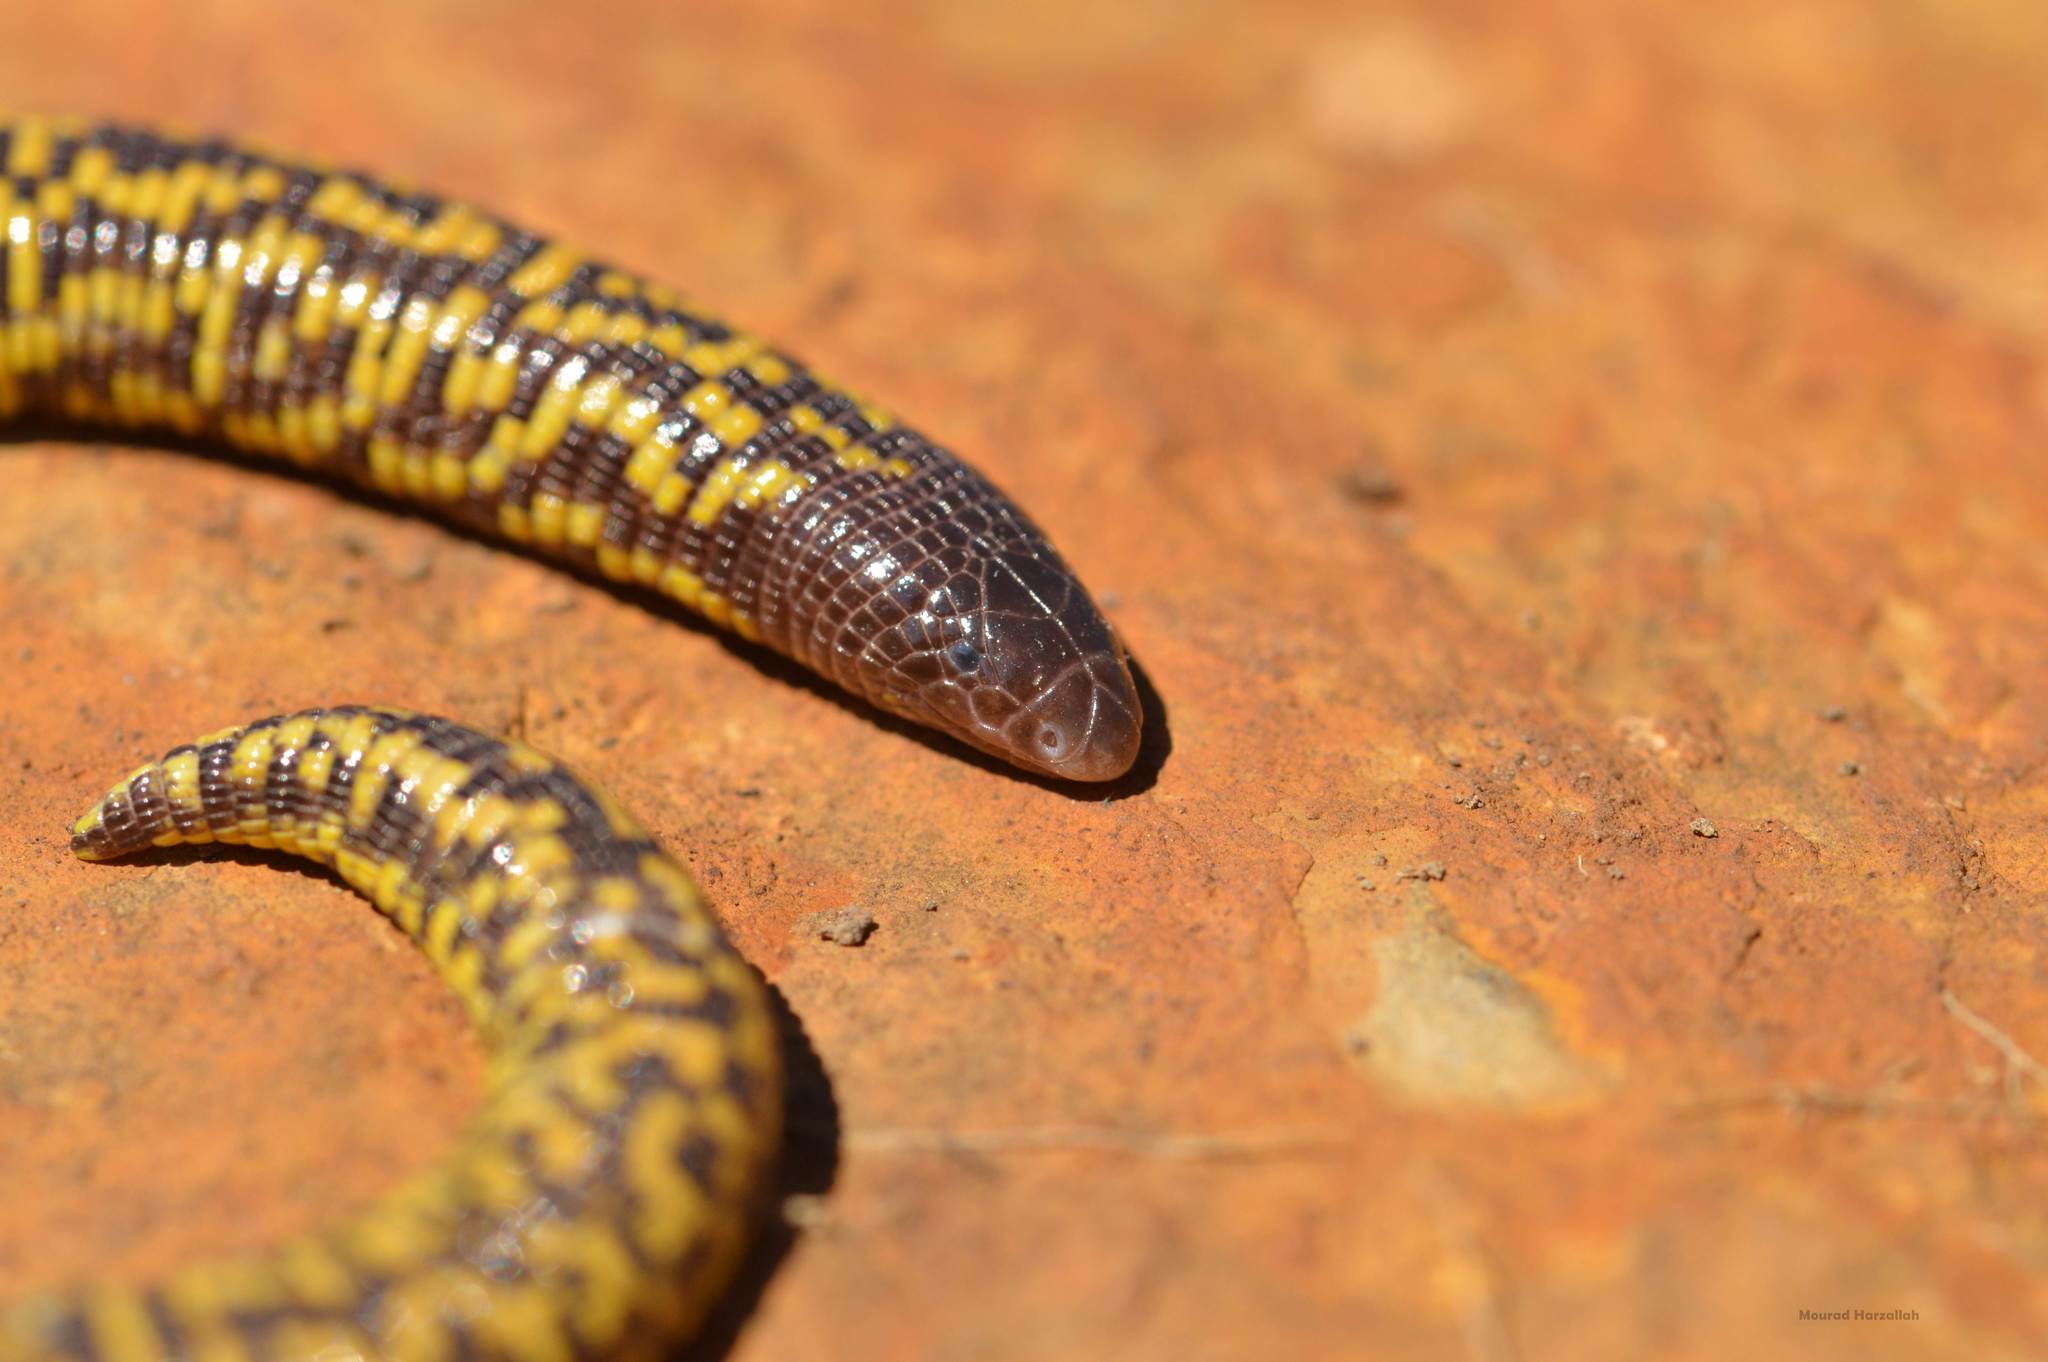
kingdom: Animalia
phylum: Chordata
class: Squamata
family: Trogonophidae
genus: Trogonophis
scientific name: Trogonophis wiegmanni
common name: Checkerboard worm lizard
